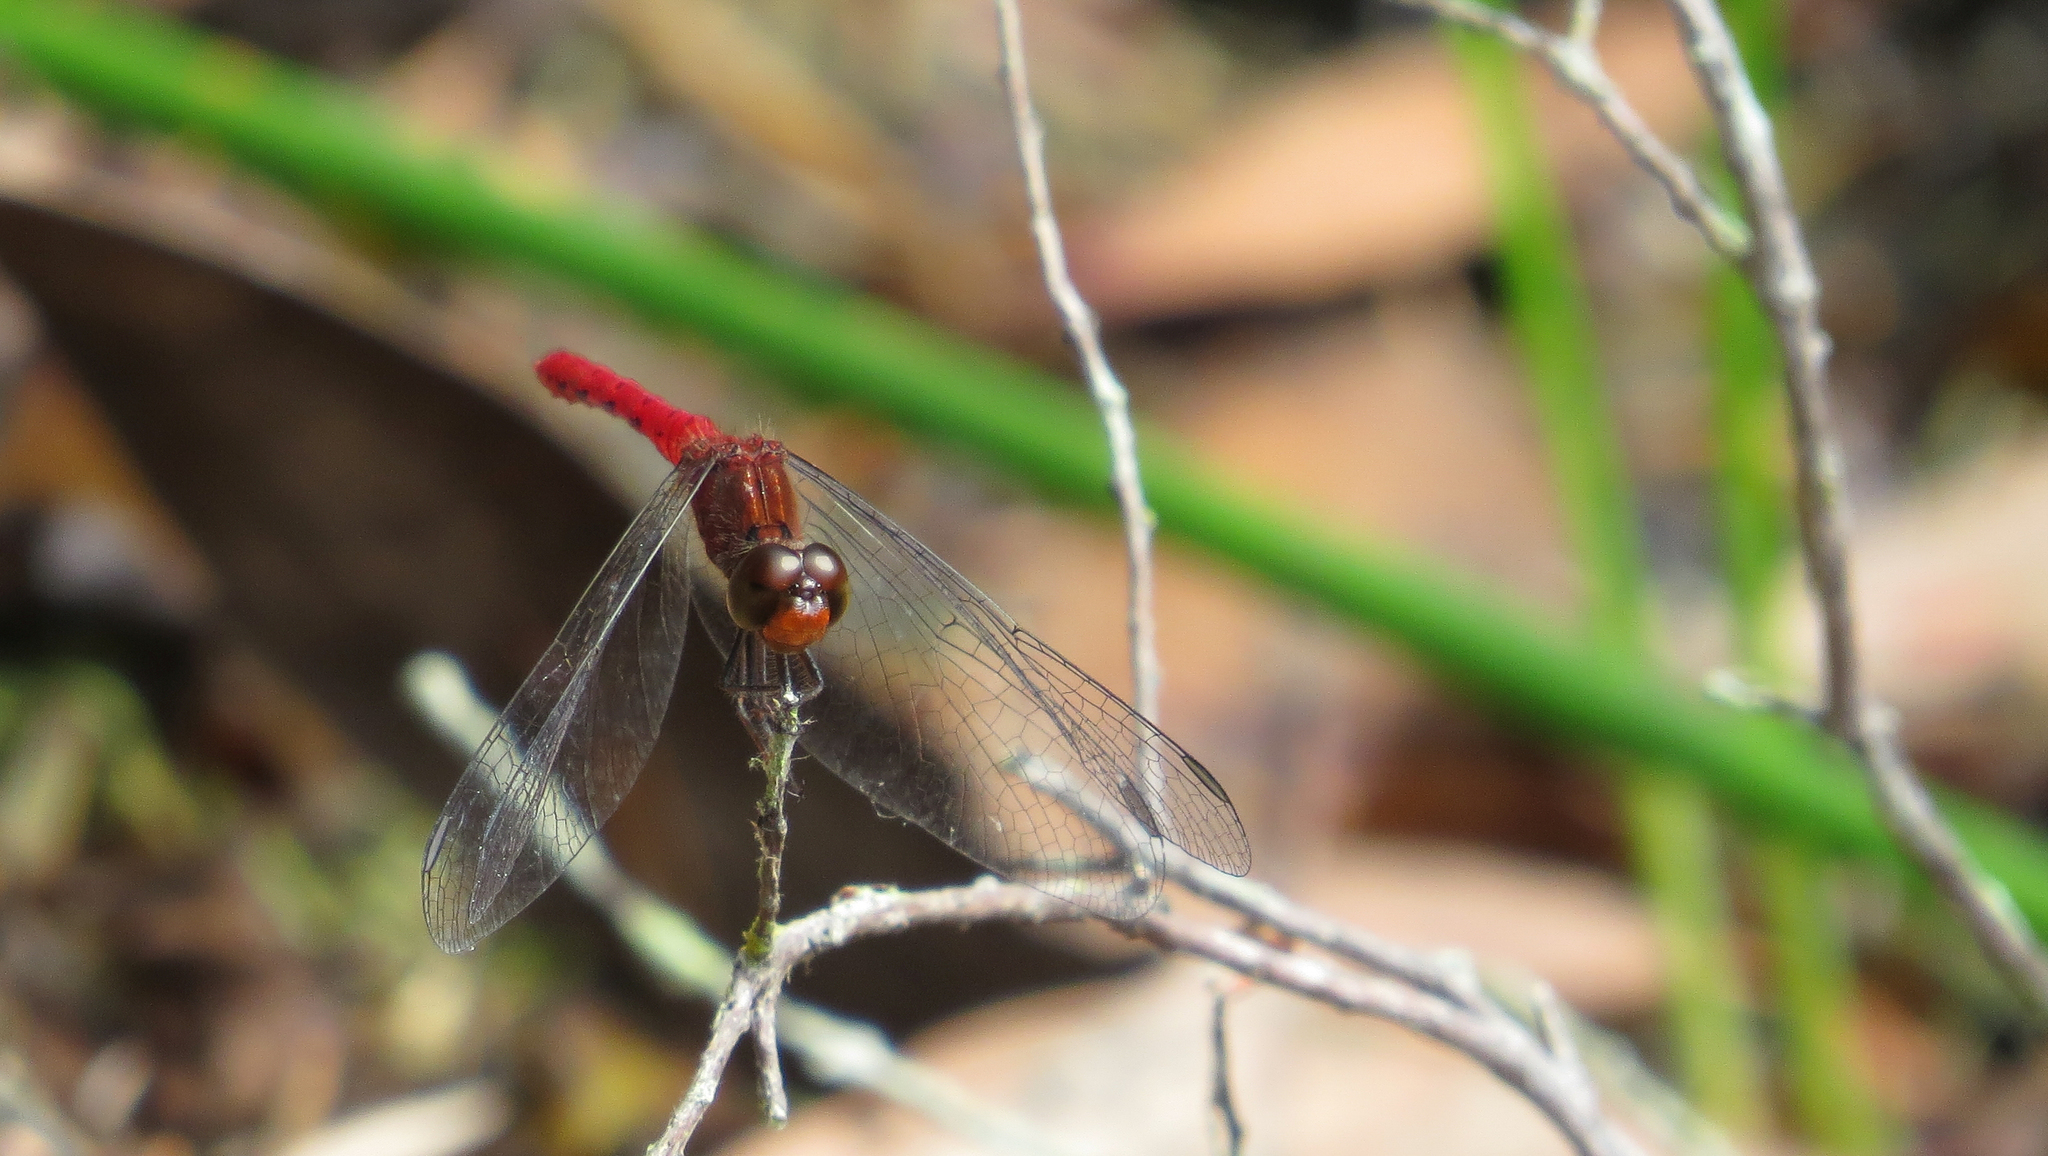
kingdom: Animalia
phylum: Arthropoda
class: Insecta
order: Odonata
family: Libellulidae
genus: Nannodiplax
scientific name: Nannodiplax rubra
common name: Pygmy percher
